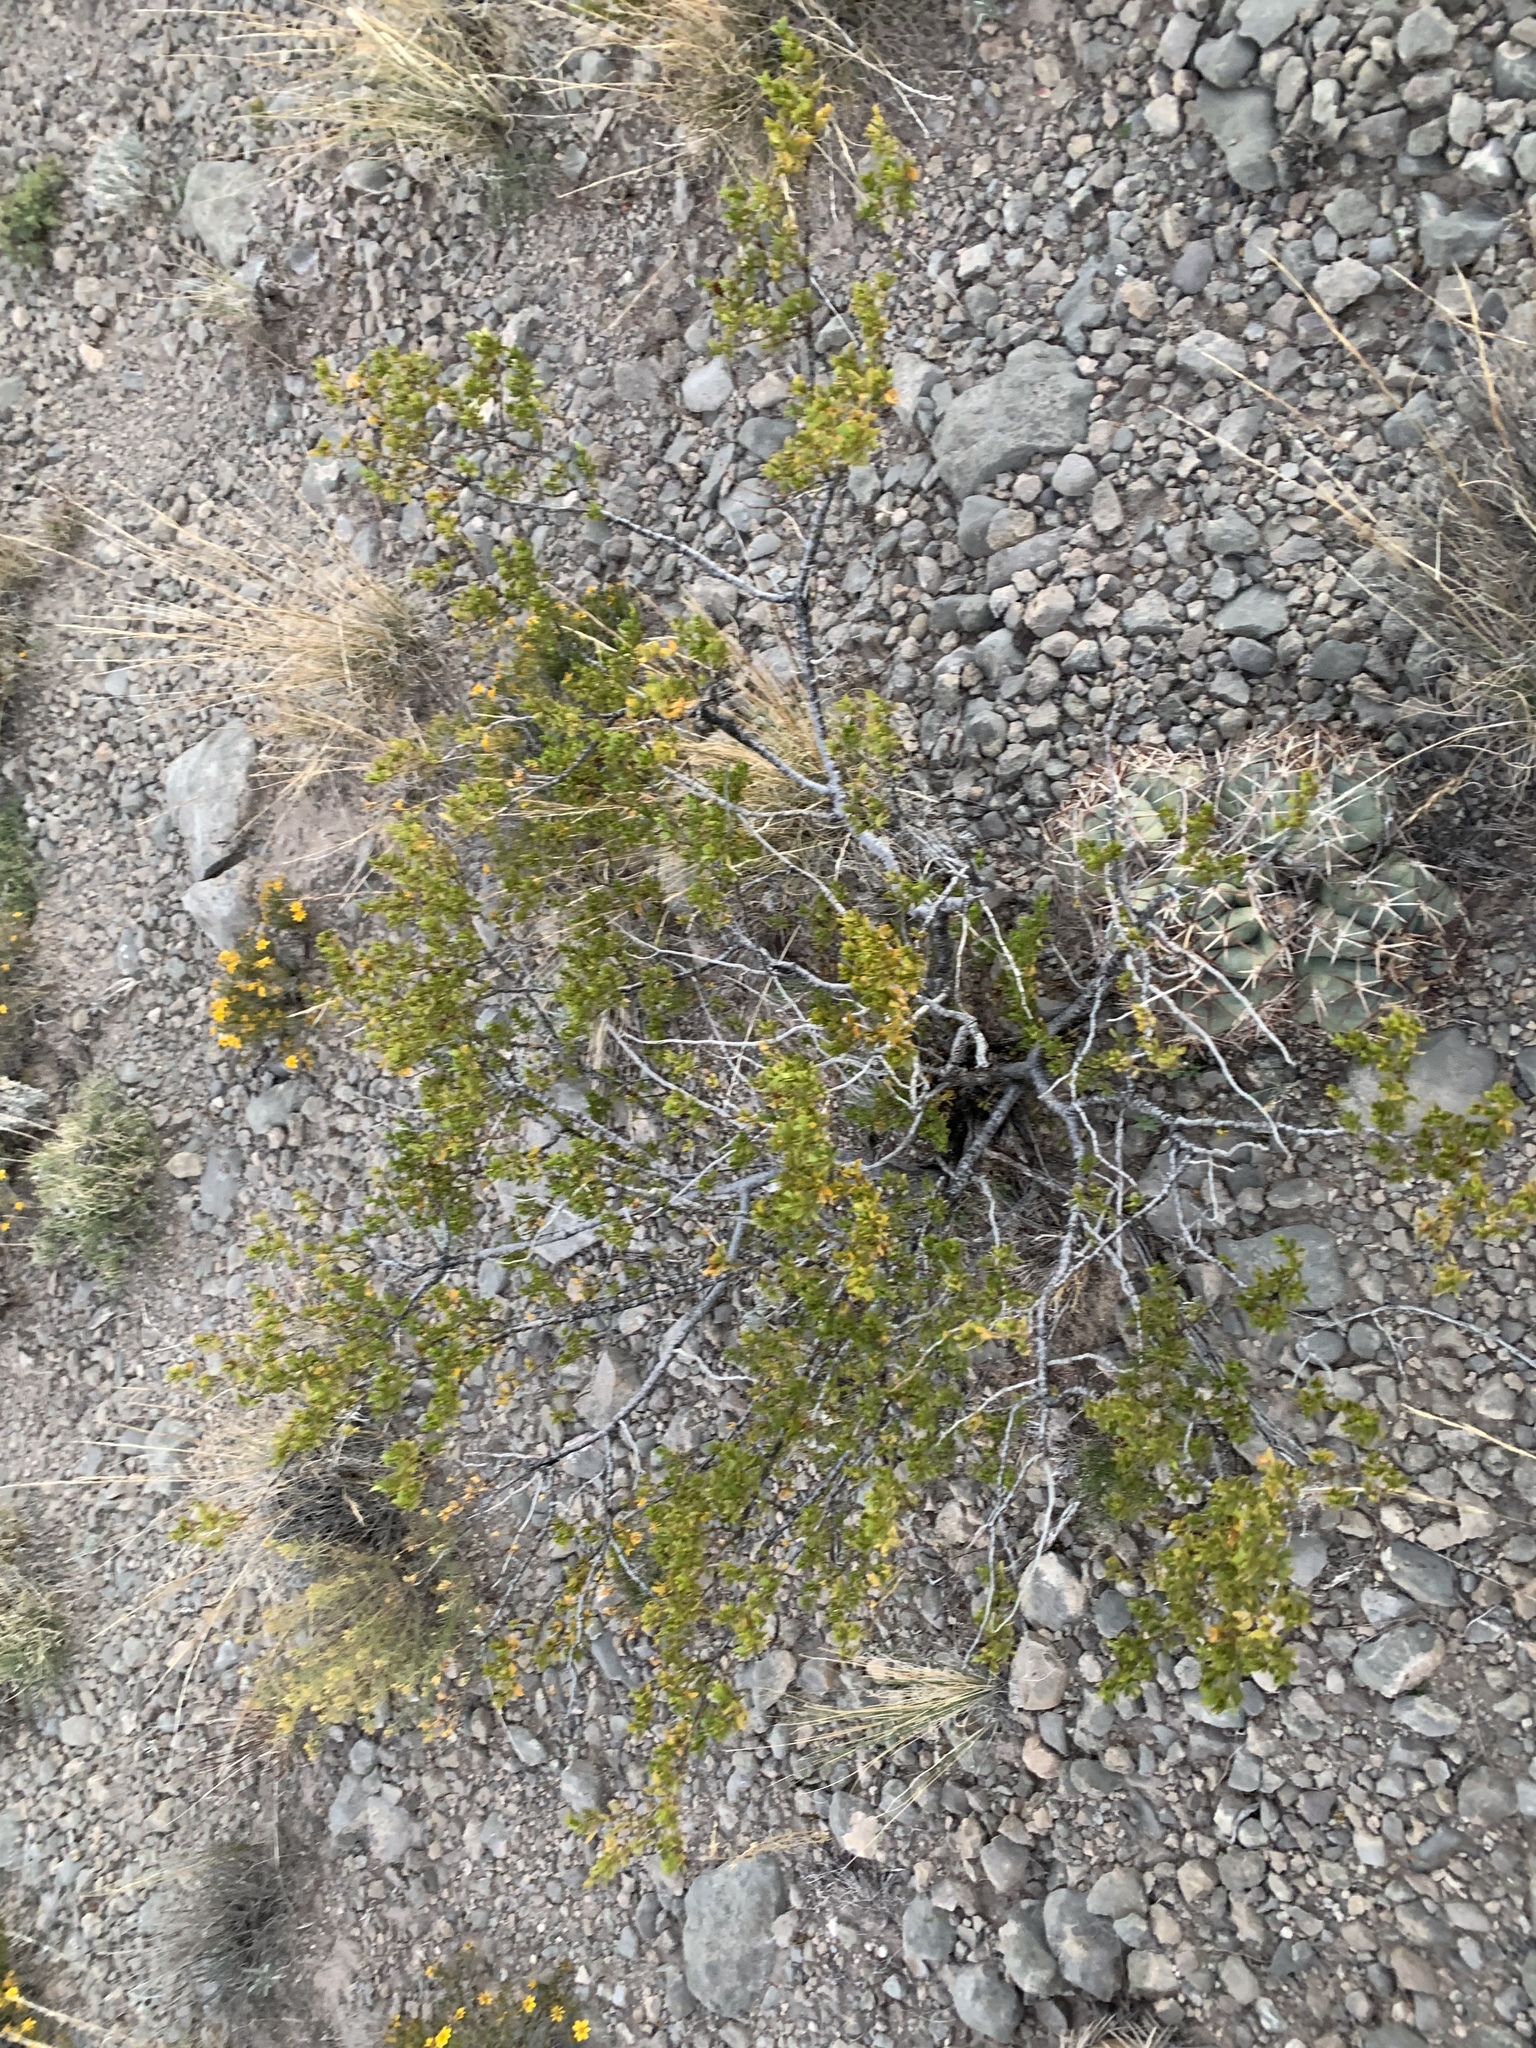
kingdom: Plantae
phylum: Tracheophyta
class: Magnoliopsida
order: Zygophyllales
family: Zygophyllaceae
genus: Larrea
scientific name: Larrea tridentata
